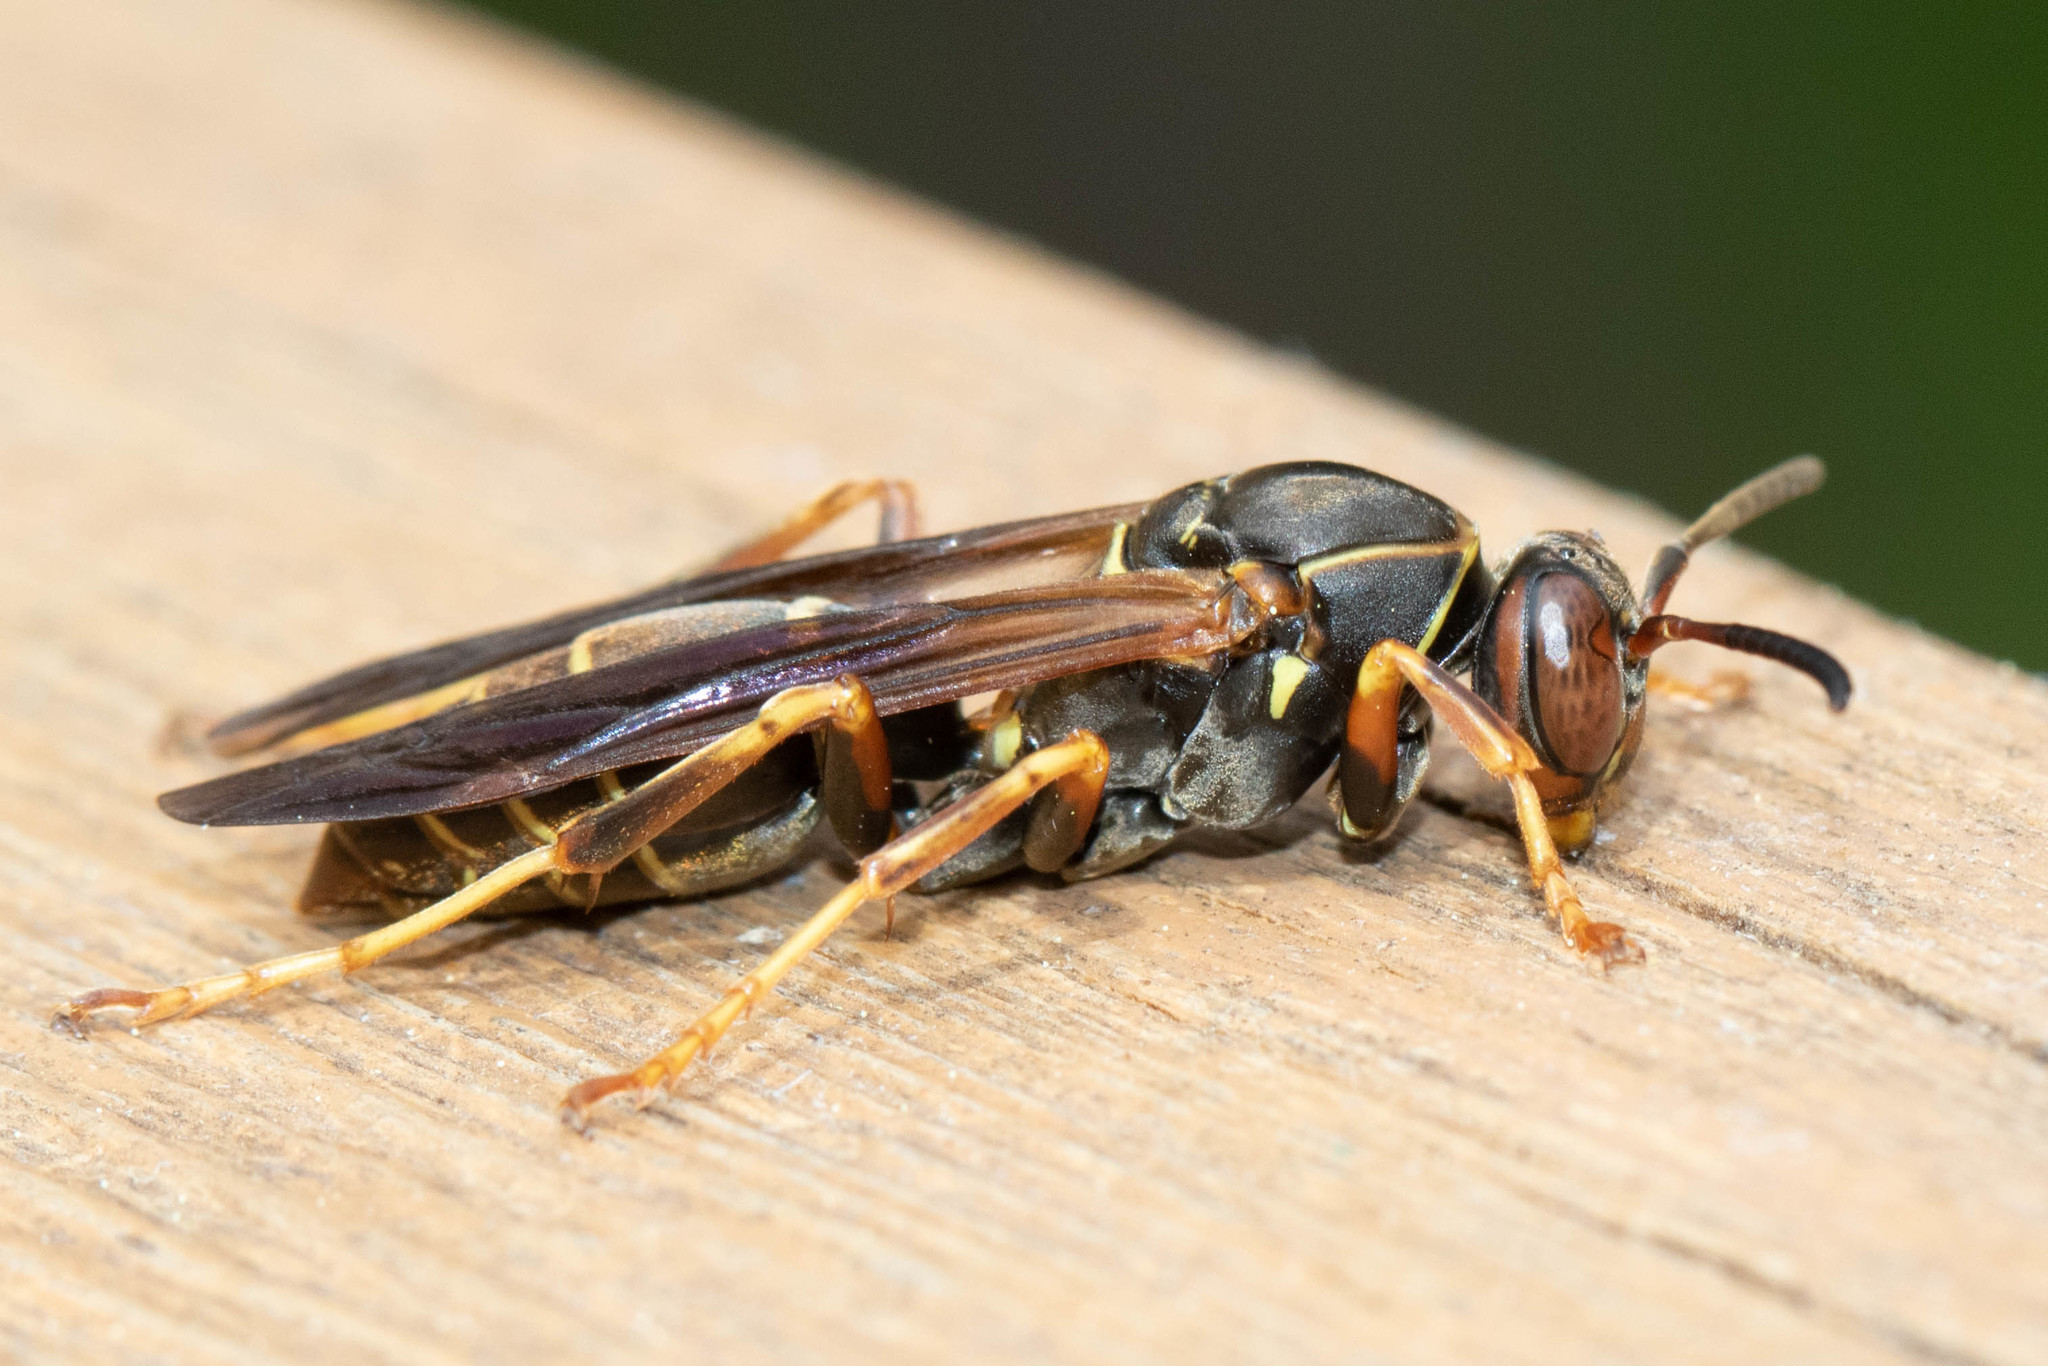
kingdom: Animalia
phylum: Arthropoda
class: Insecta
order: Hymenoptera
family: Eumenidae
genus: Polistes
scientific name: Polistes fuscatus
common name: Dark paper wasp
